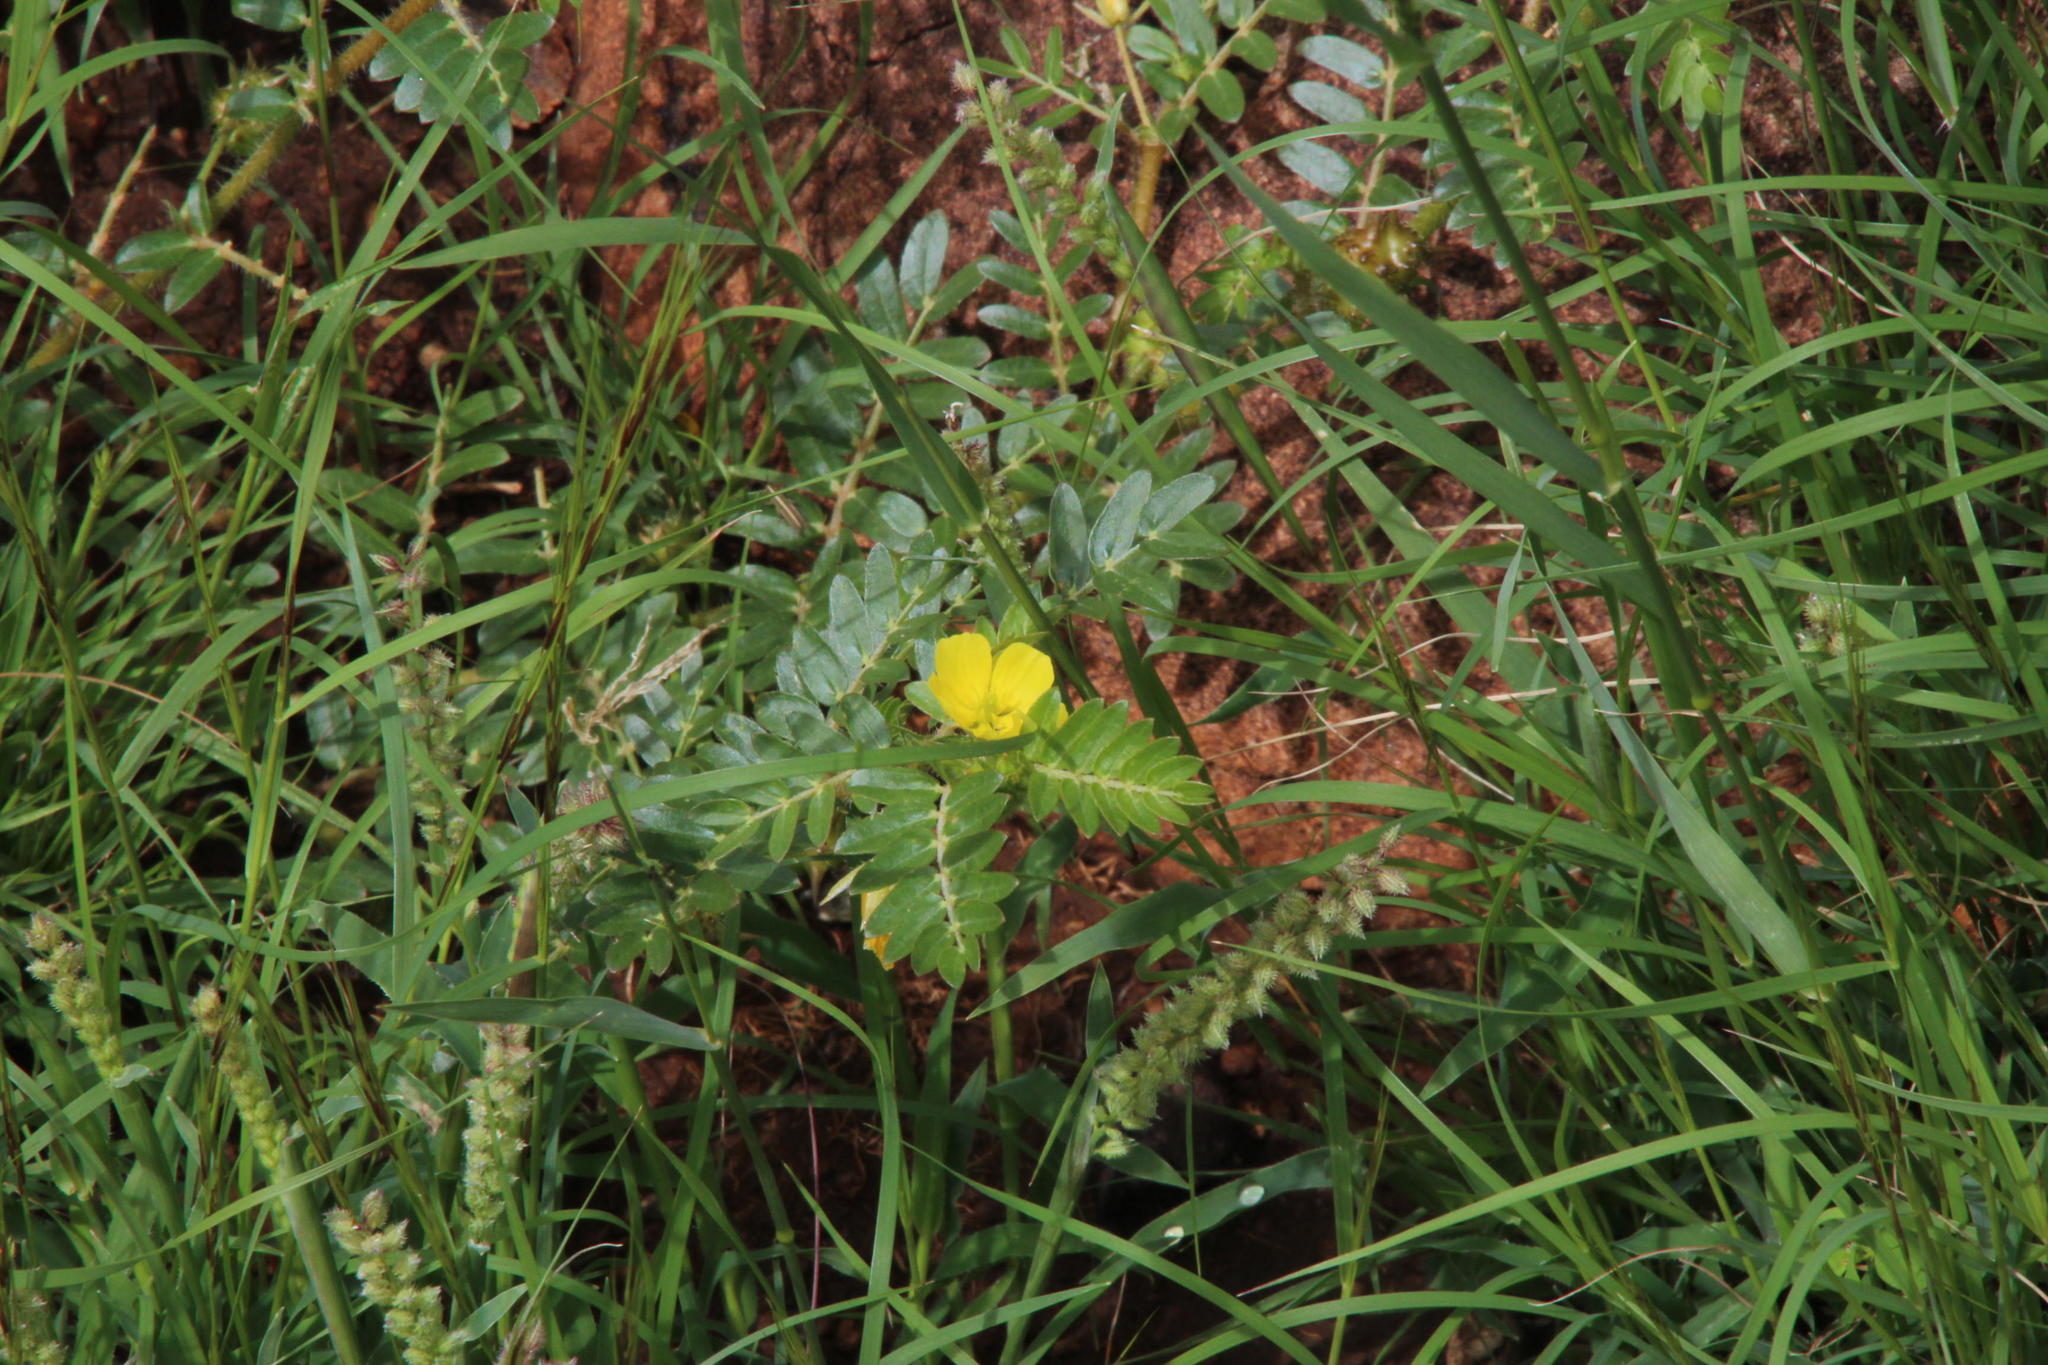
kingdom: Plantae
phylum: Tracheophyta
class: Magnoliopsida
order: Zygophyllales
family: Zygophyllaceae
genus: Tribulus
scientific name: Tribulus terrestris
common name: Puncturevine
